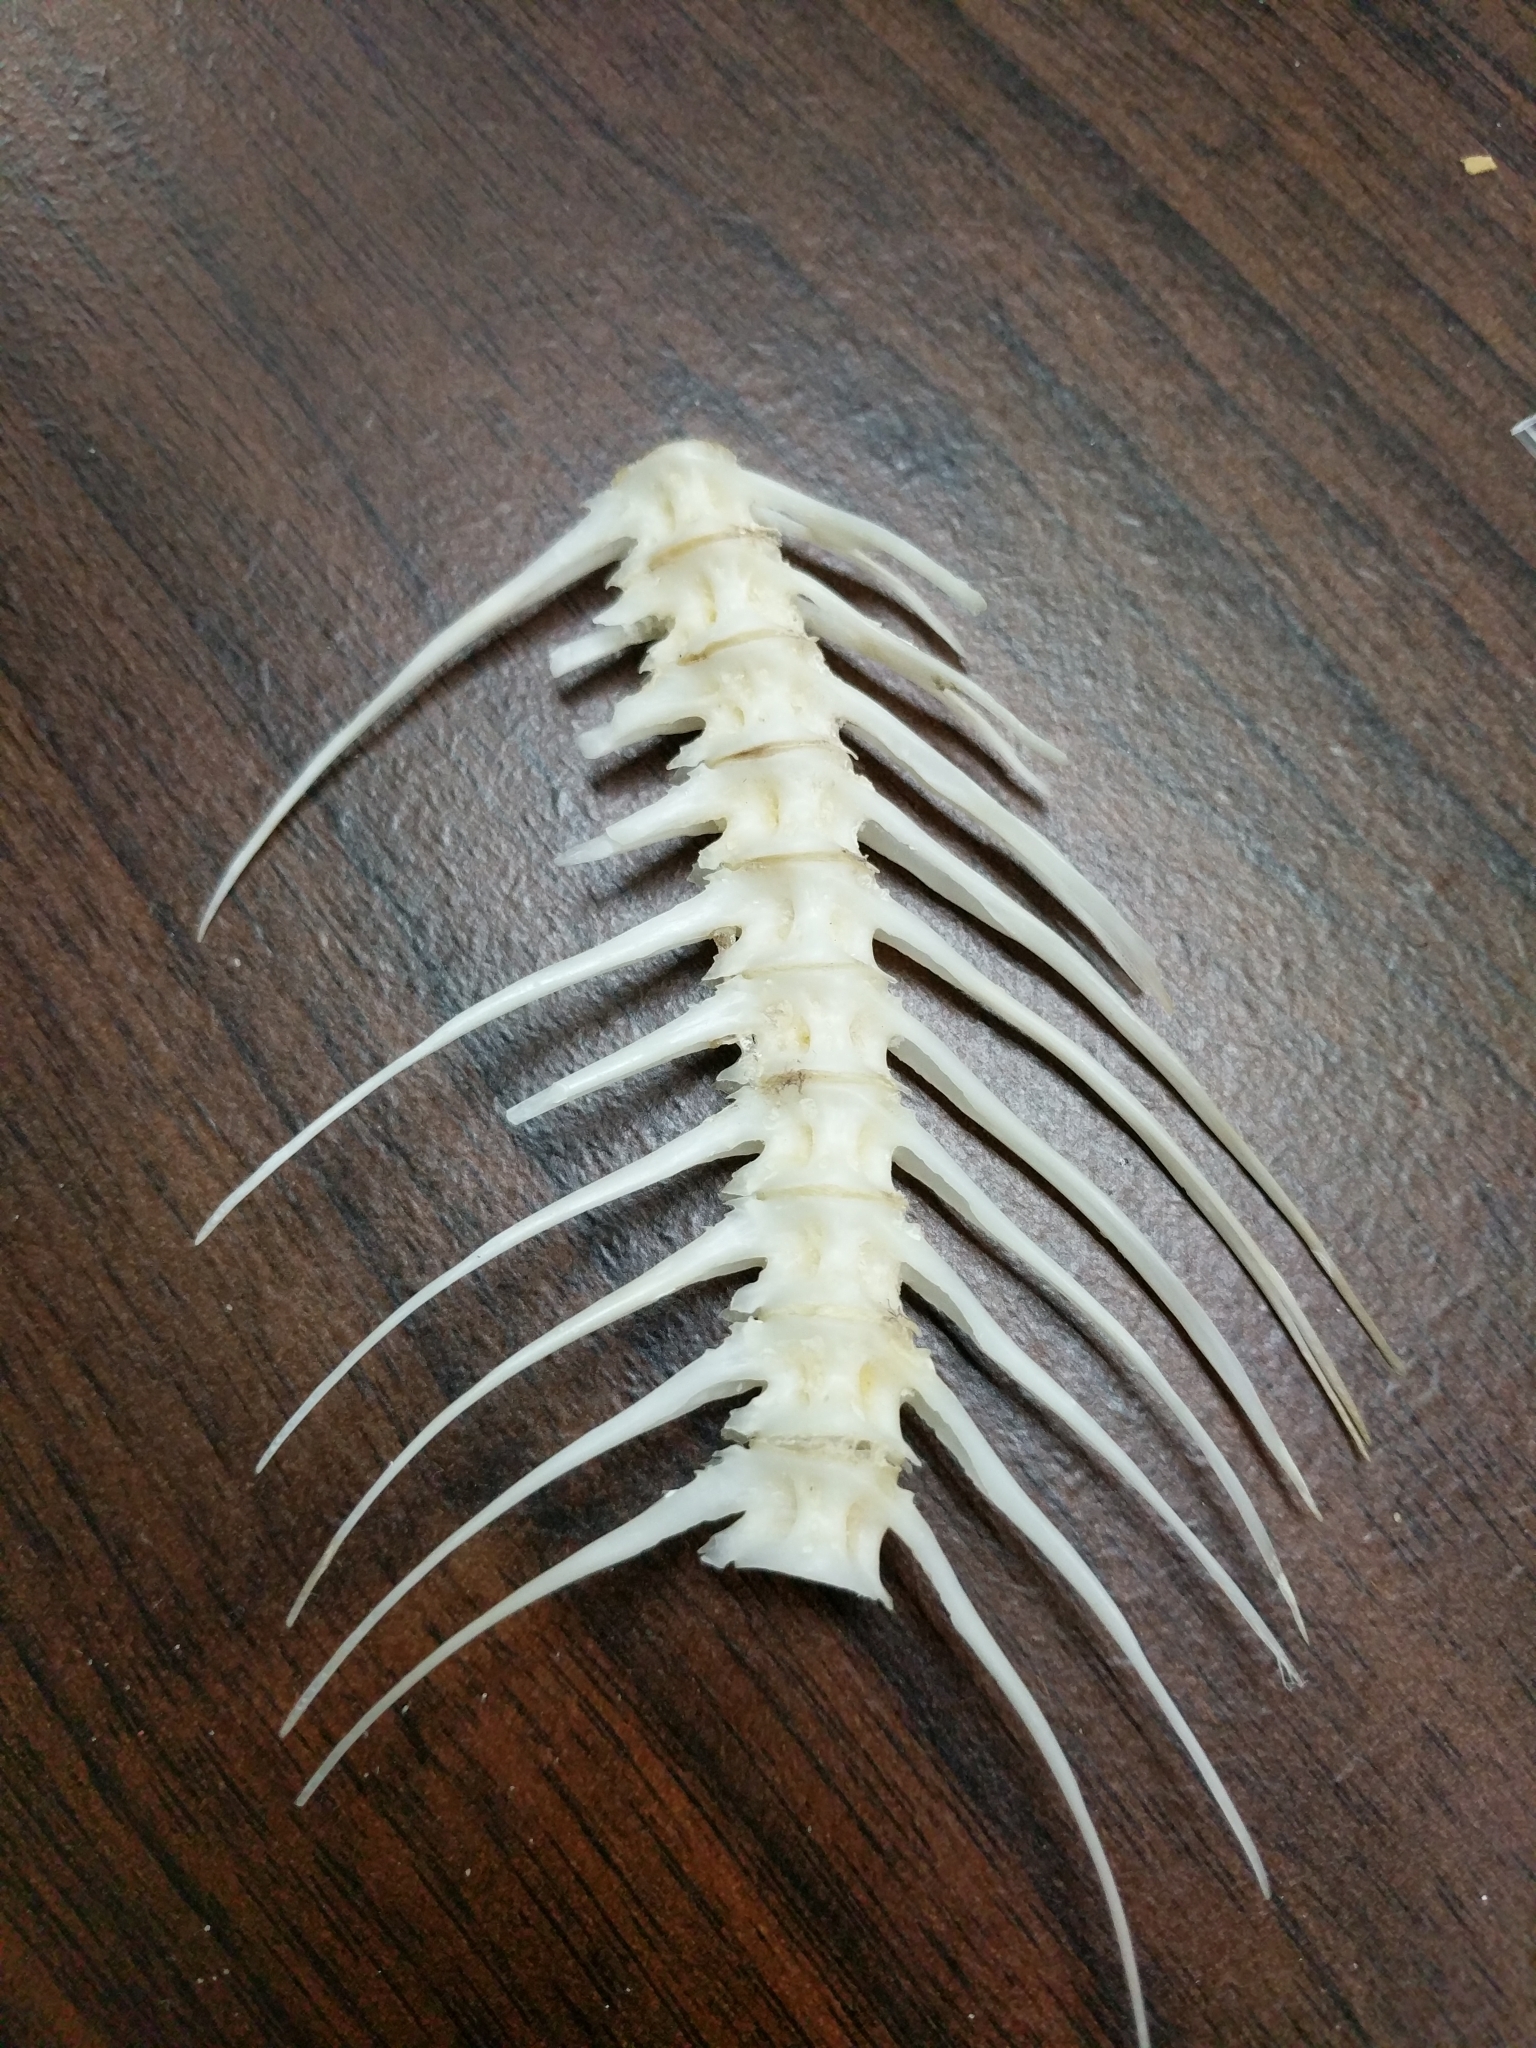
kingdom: Plantae
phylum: Tracheophyta
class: Magnoliopsida
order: Fagales
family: Juglandaceae
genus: Juglans
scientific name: Juglans nigra
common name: Black walnut
